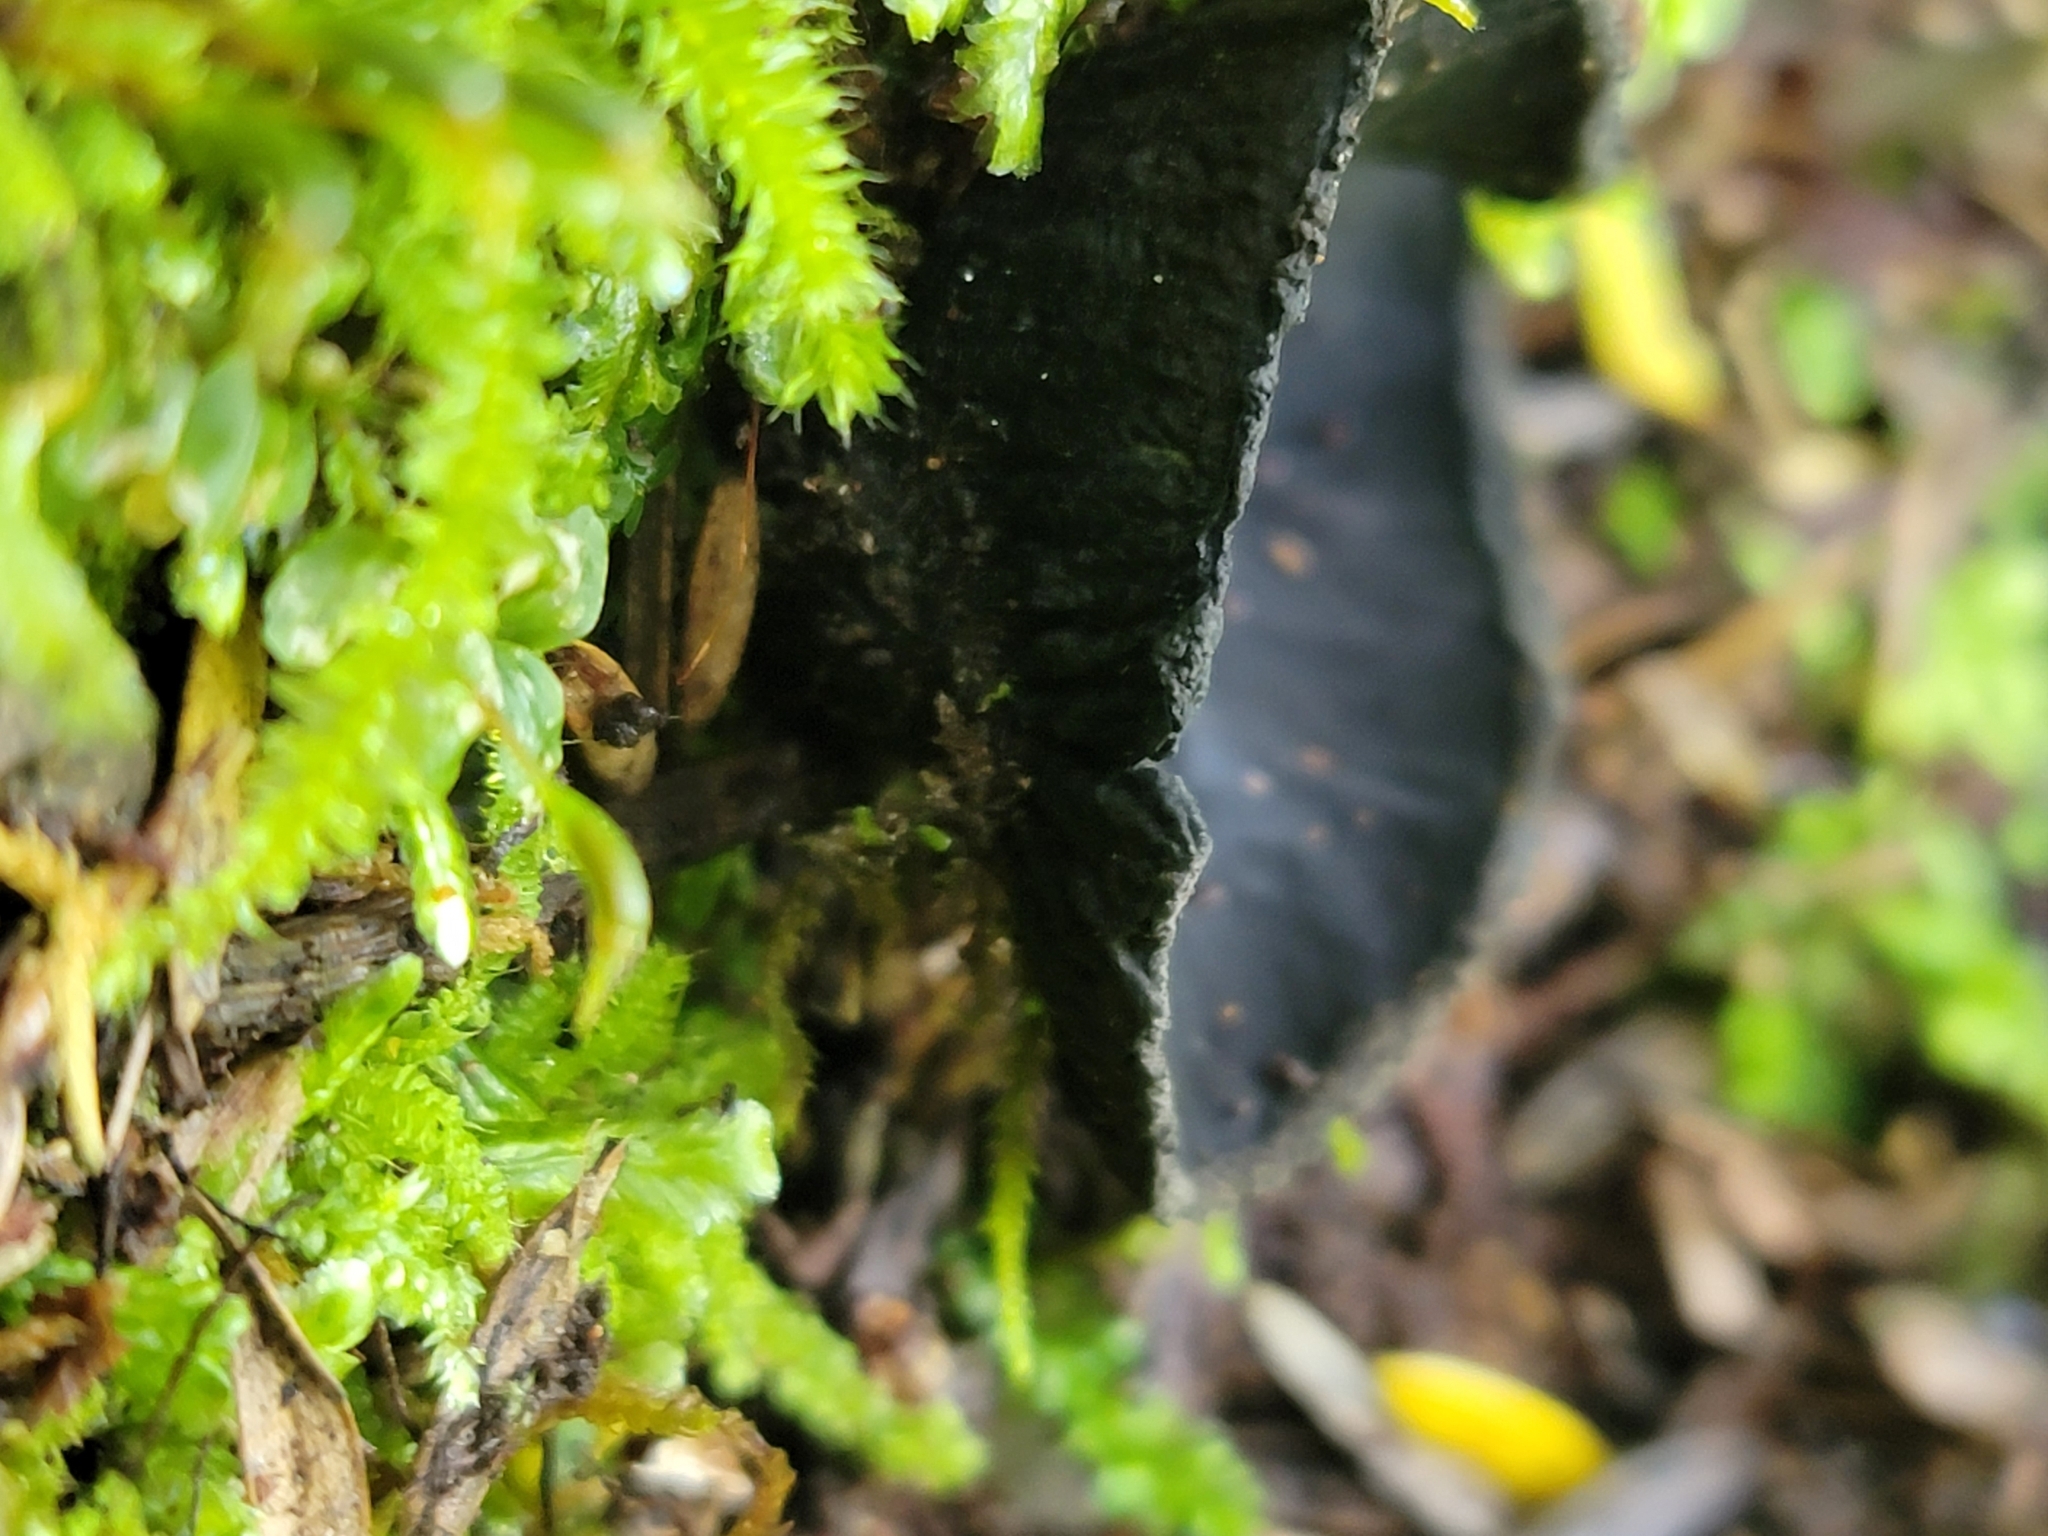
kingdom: Fungi
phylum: Ascomycota
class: Pezizomycetes
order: Pezizales
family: Sarcosomataceae
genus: Plectania
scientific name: Plectania rhytidia
